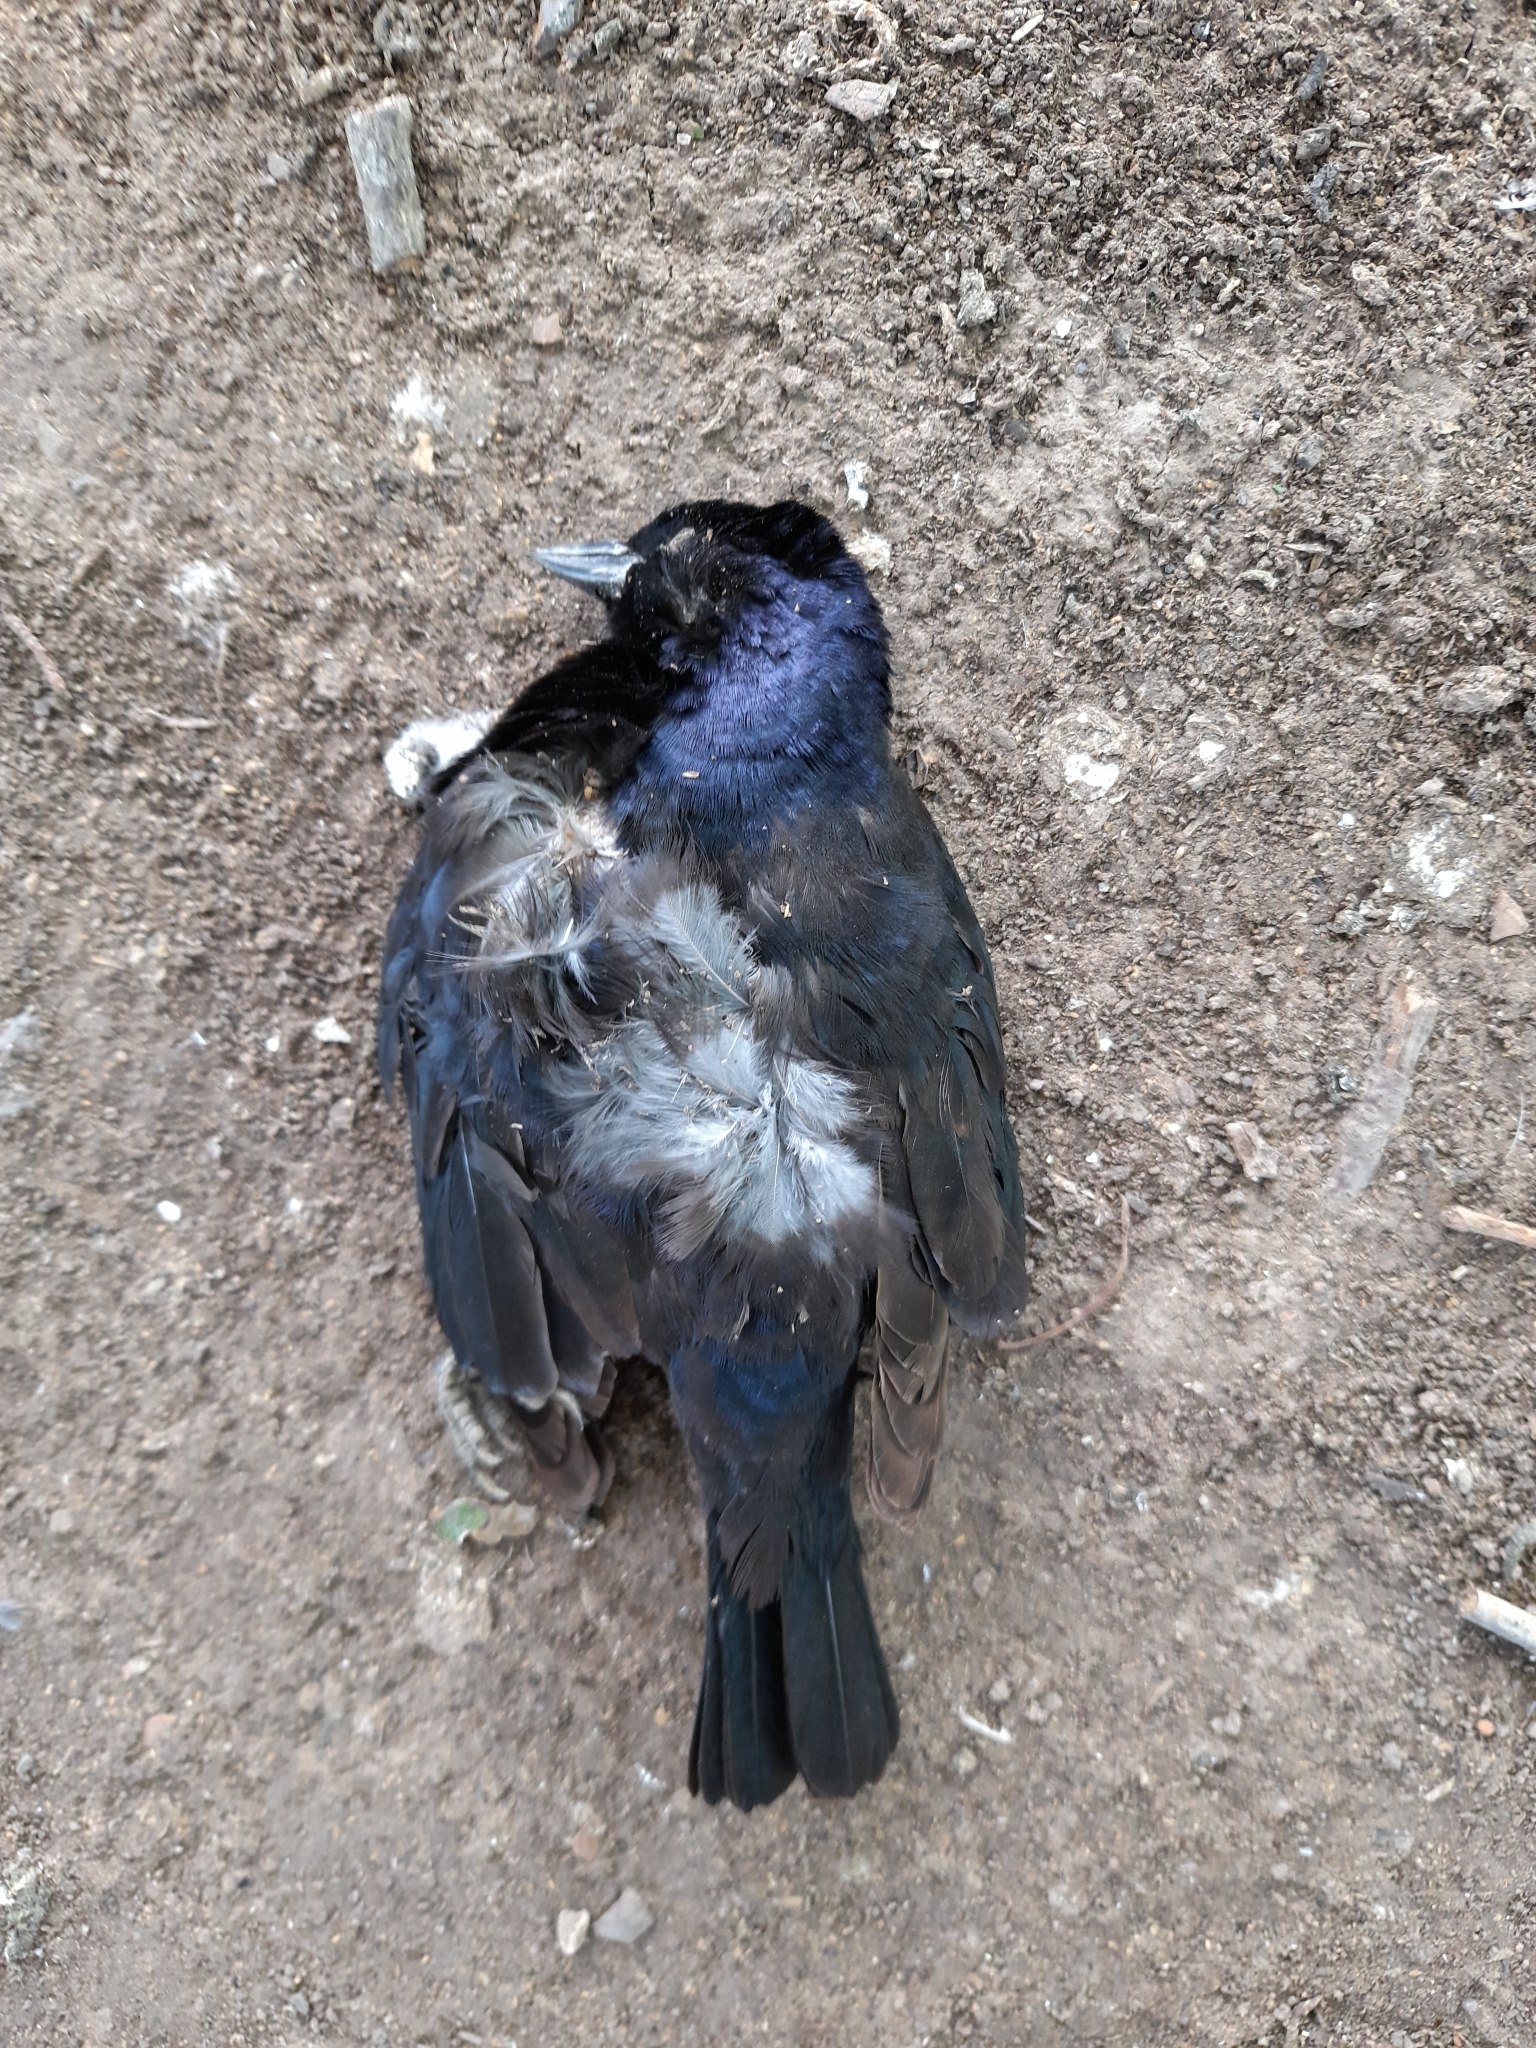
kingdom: Animalia
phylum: Chordata
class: Aves
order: Passeriformes
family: Icteridae
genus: Molothrus
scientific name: Molothrus bonariensis
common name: Shiny cowbird
